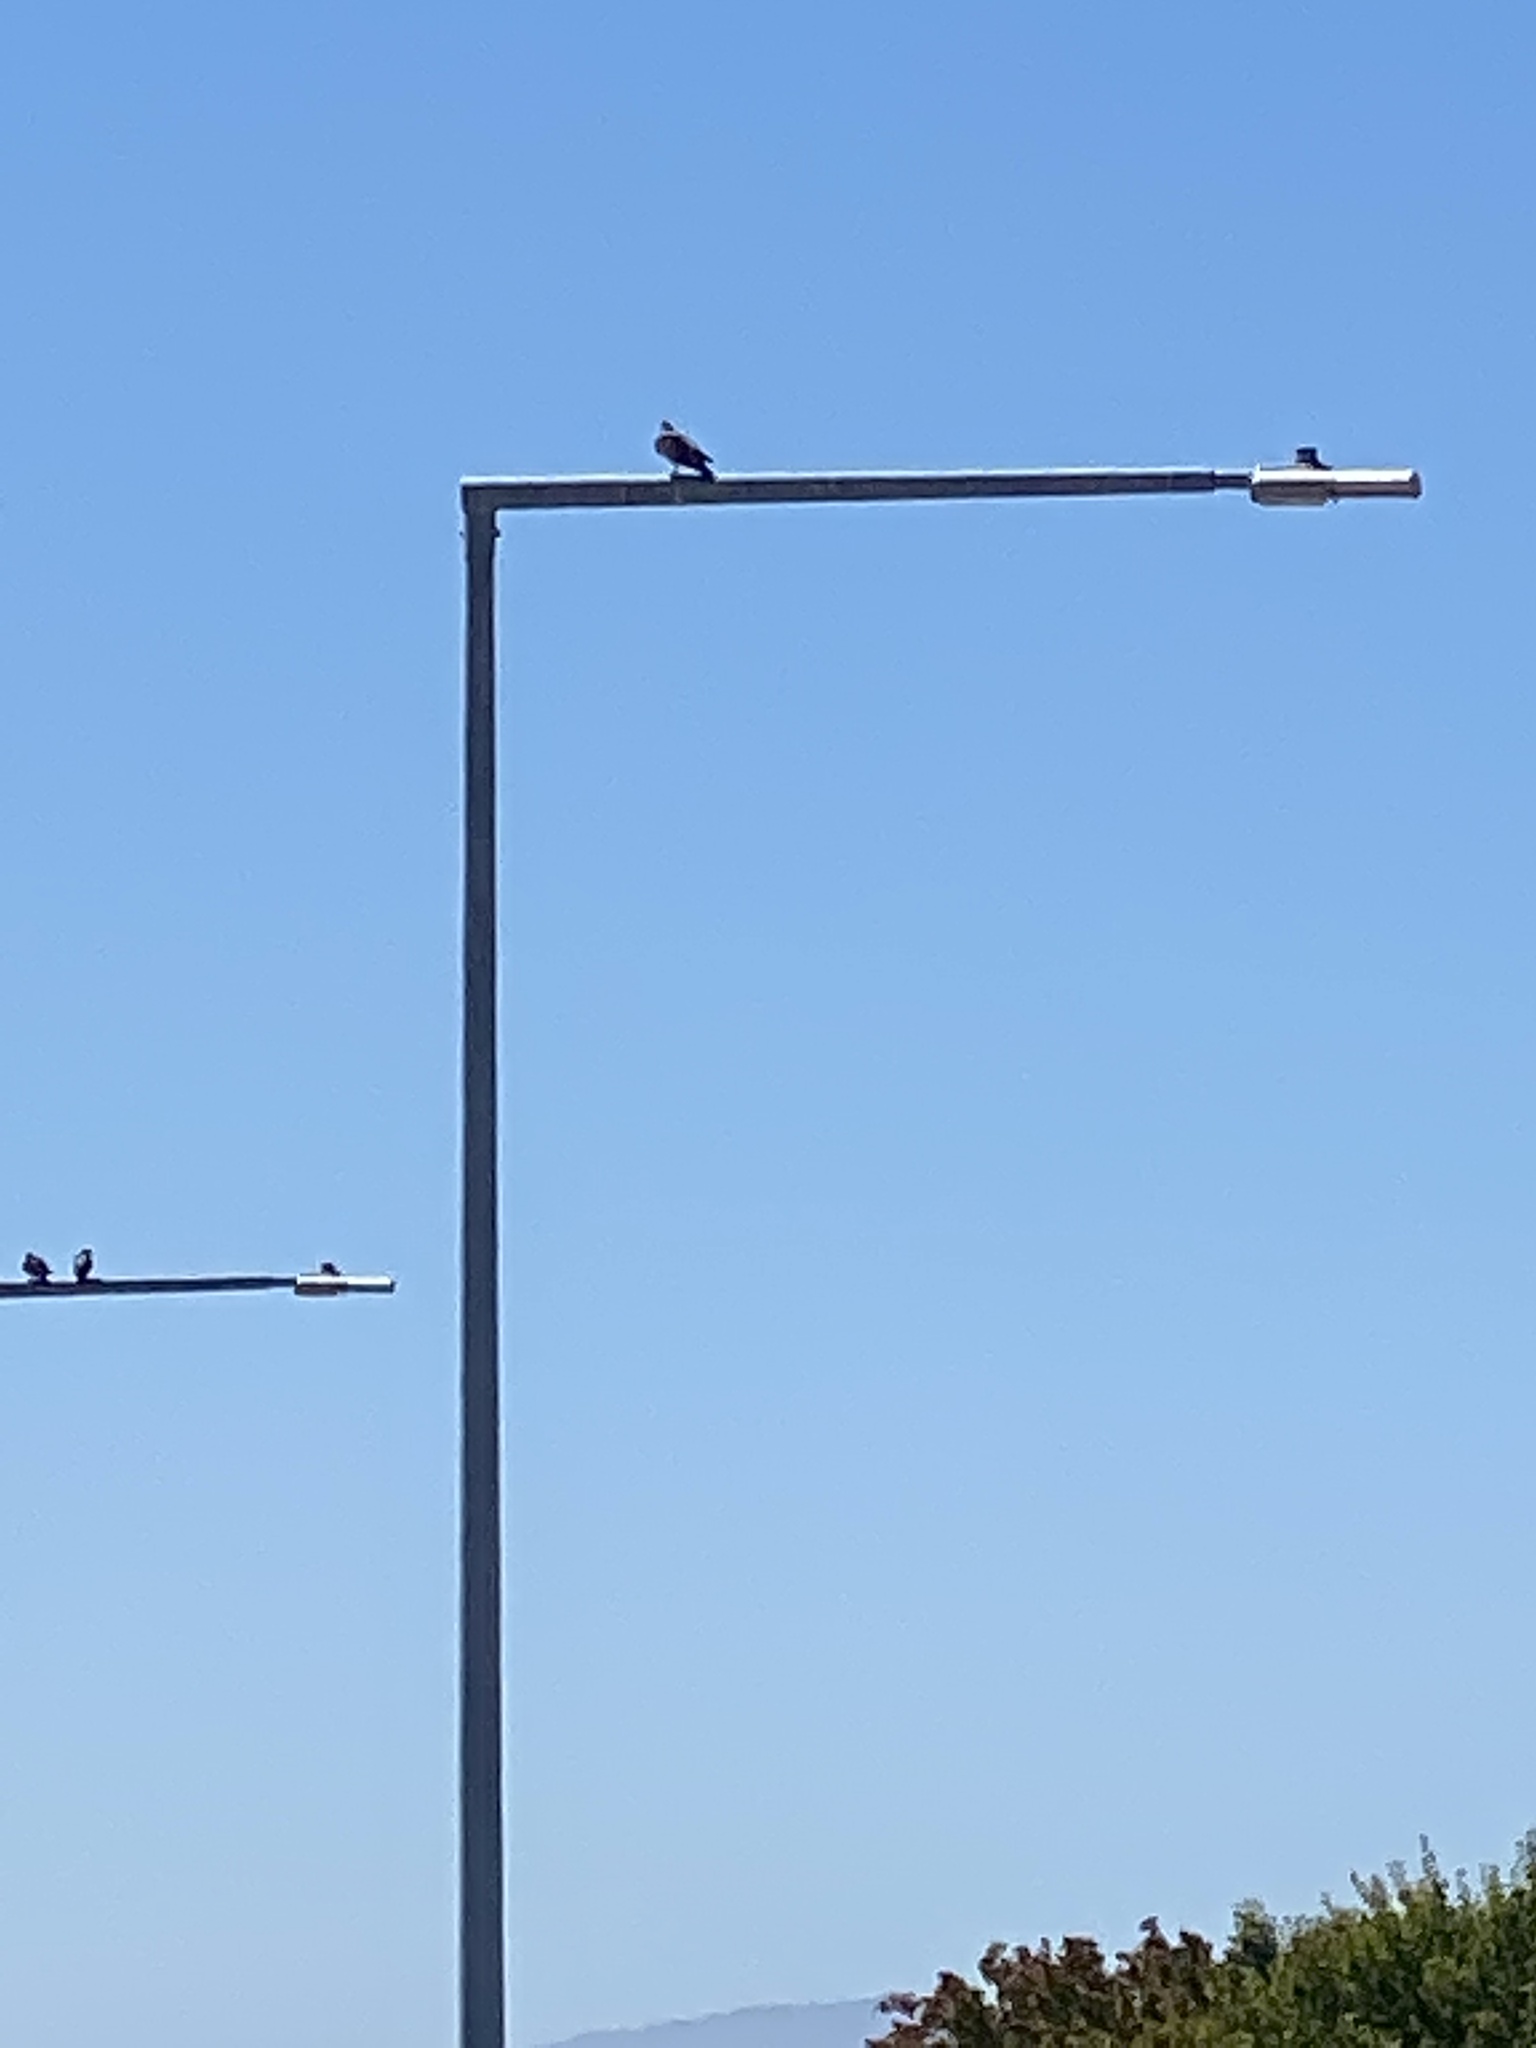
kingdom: Animalia
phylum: Chordata
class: Aves
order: Columbiformes
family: Columbidae
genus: Columba
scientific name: Columba livia
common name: Rock pigeon
